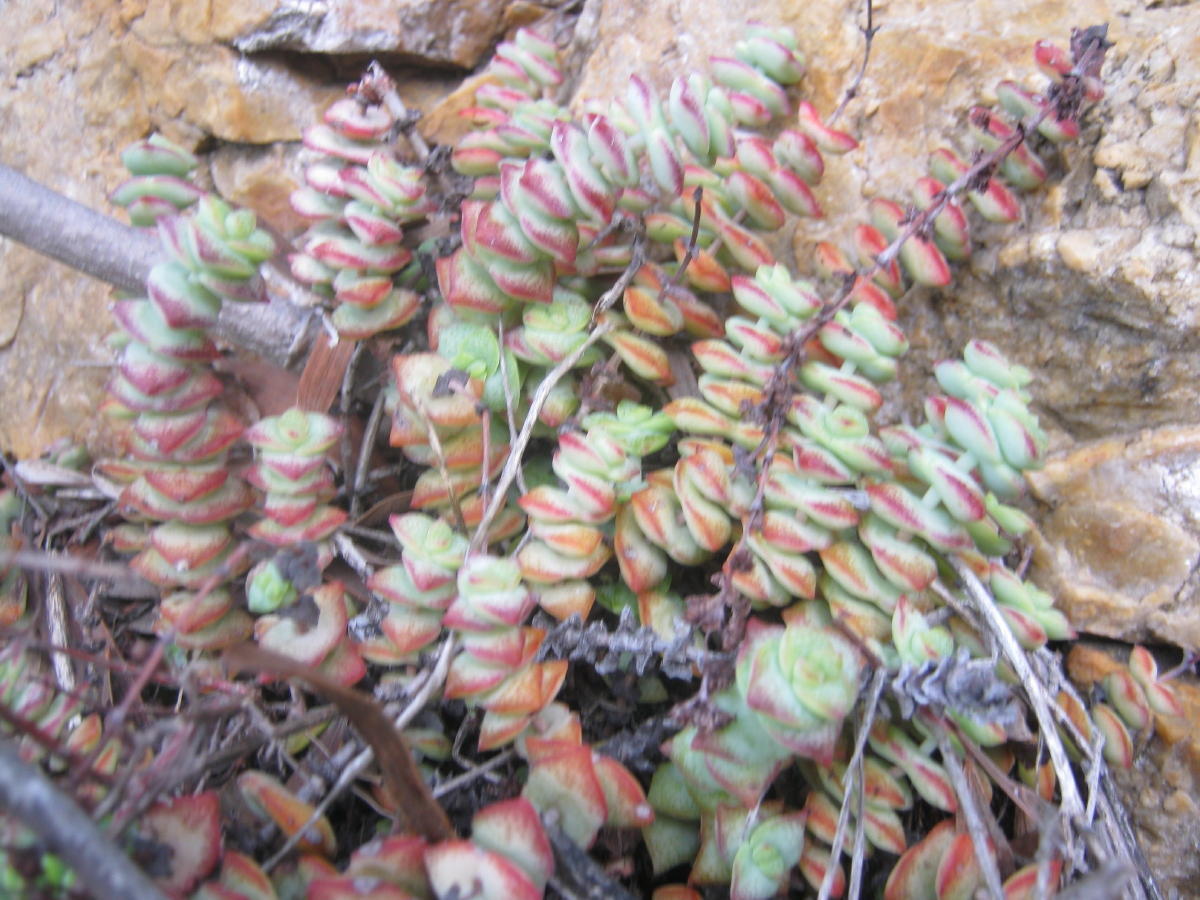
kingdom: Plantae
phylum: Tracheophyta
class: Magnoliopsida
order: Saxifragales
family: Crassulaceae
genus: Crassula
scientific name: Crassula perforata
